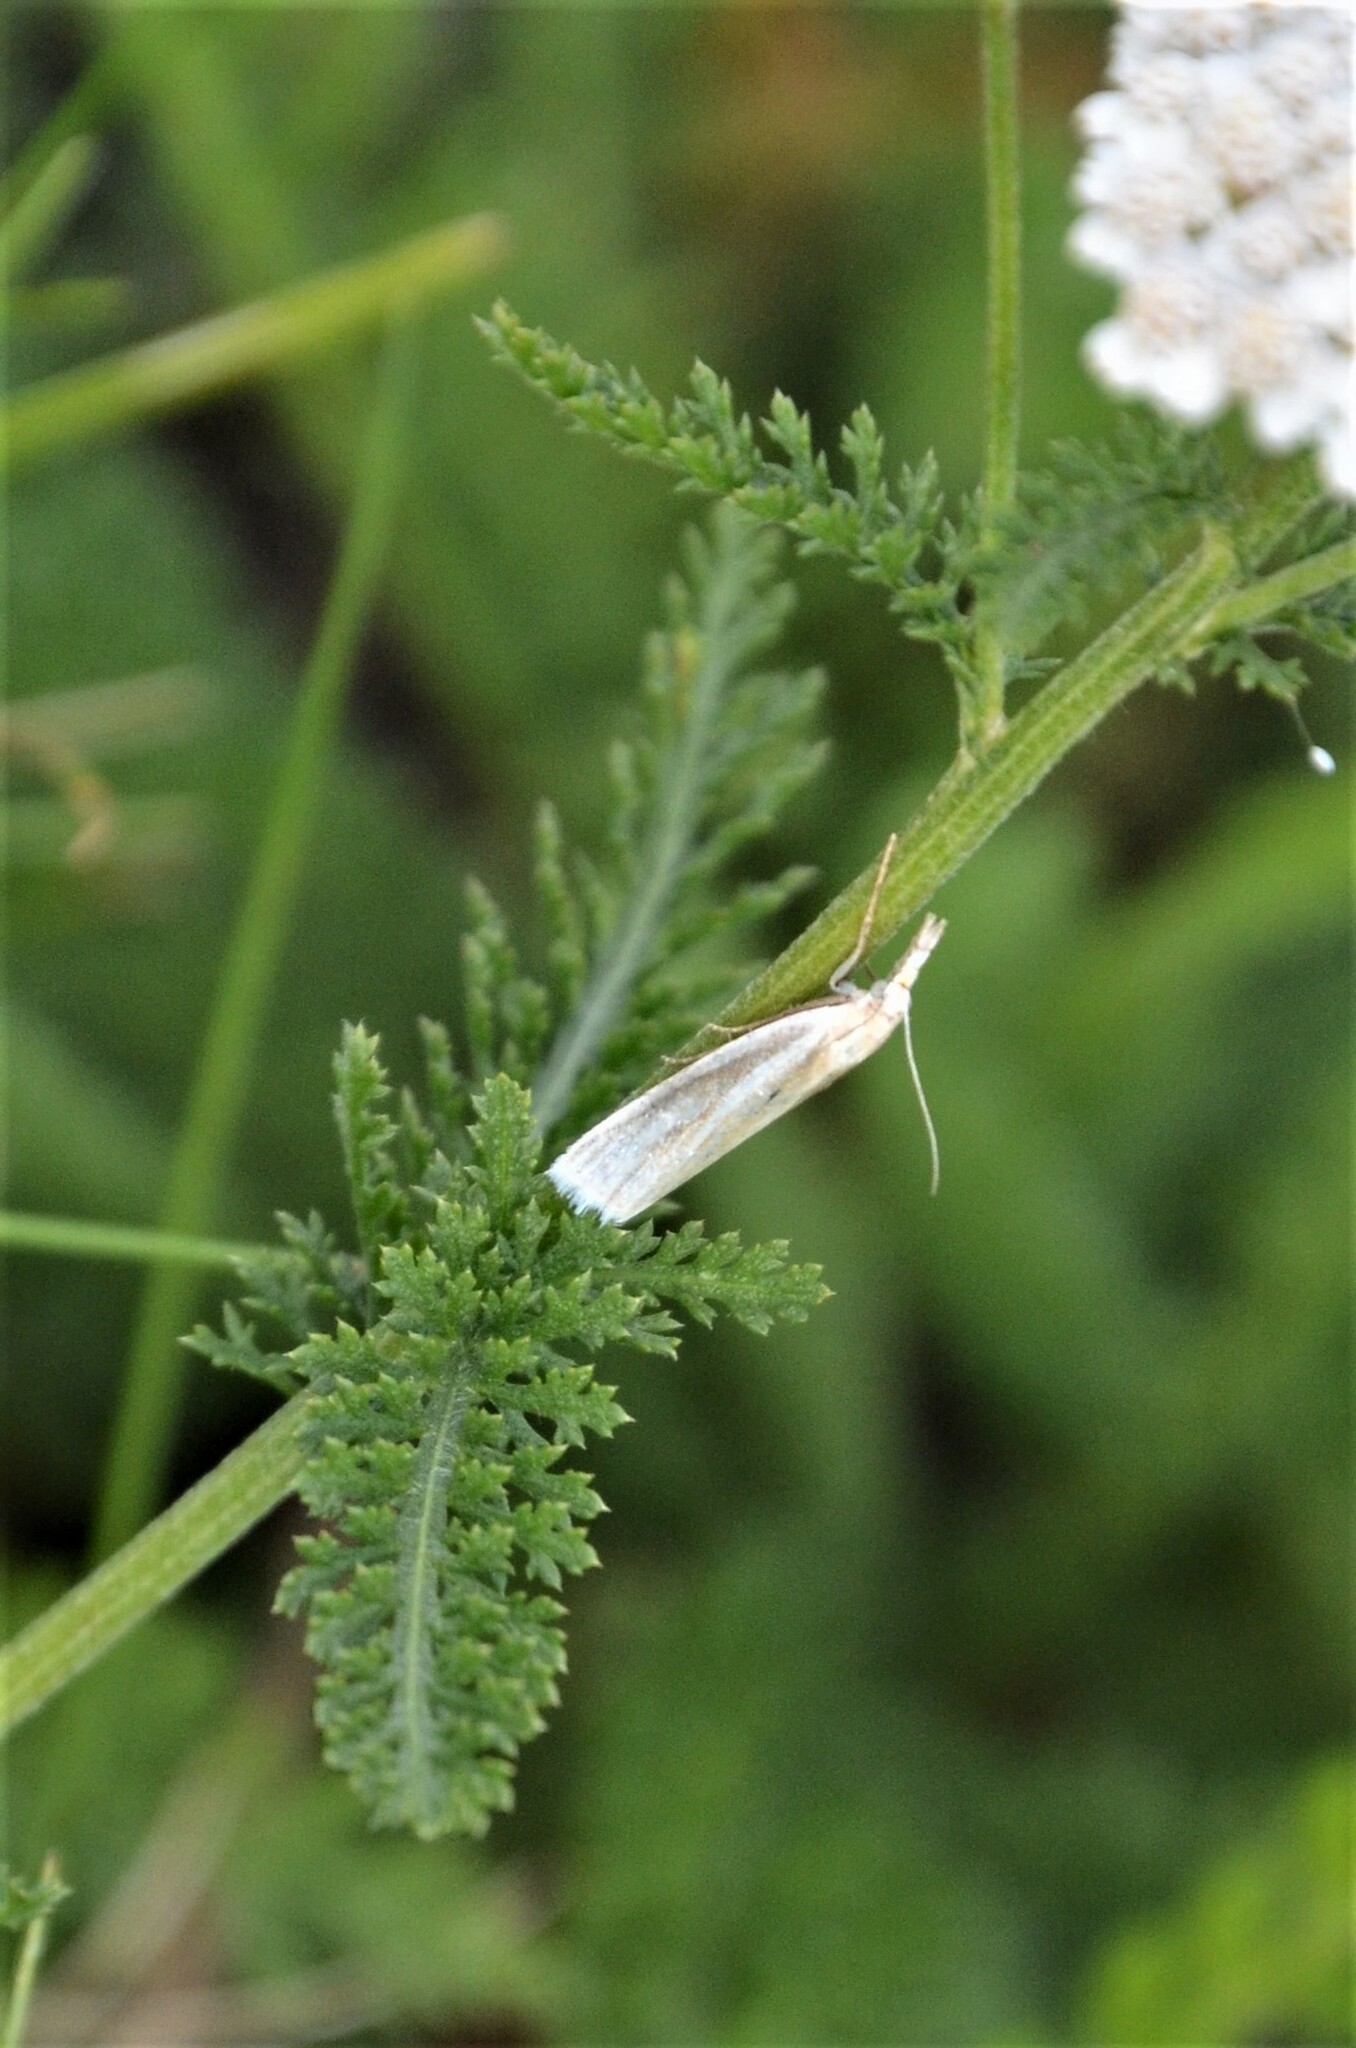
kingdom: Animalia
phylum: Arthropoda
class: Insecta
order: Lepidoptera
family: Crambidae
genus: Crambus
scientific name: Crambus perlellus
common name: Yellow satin veneer
